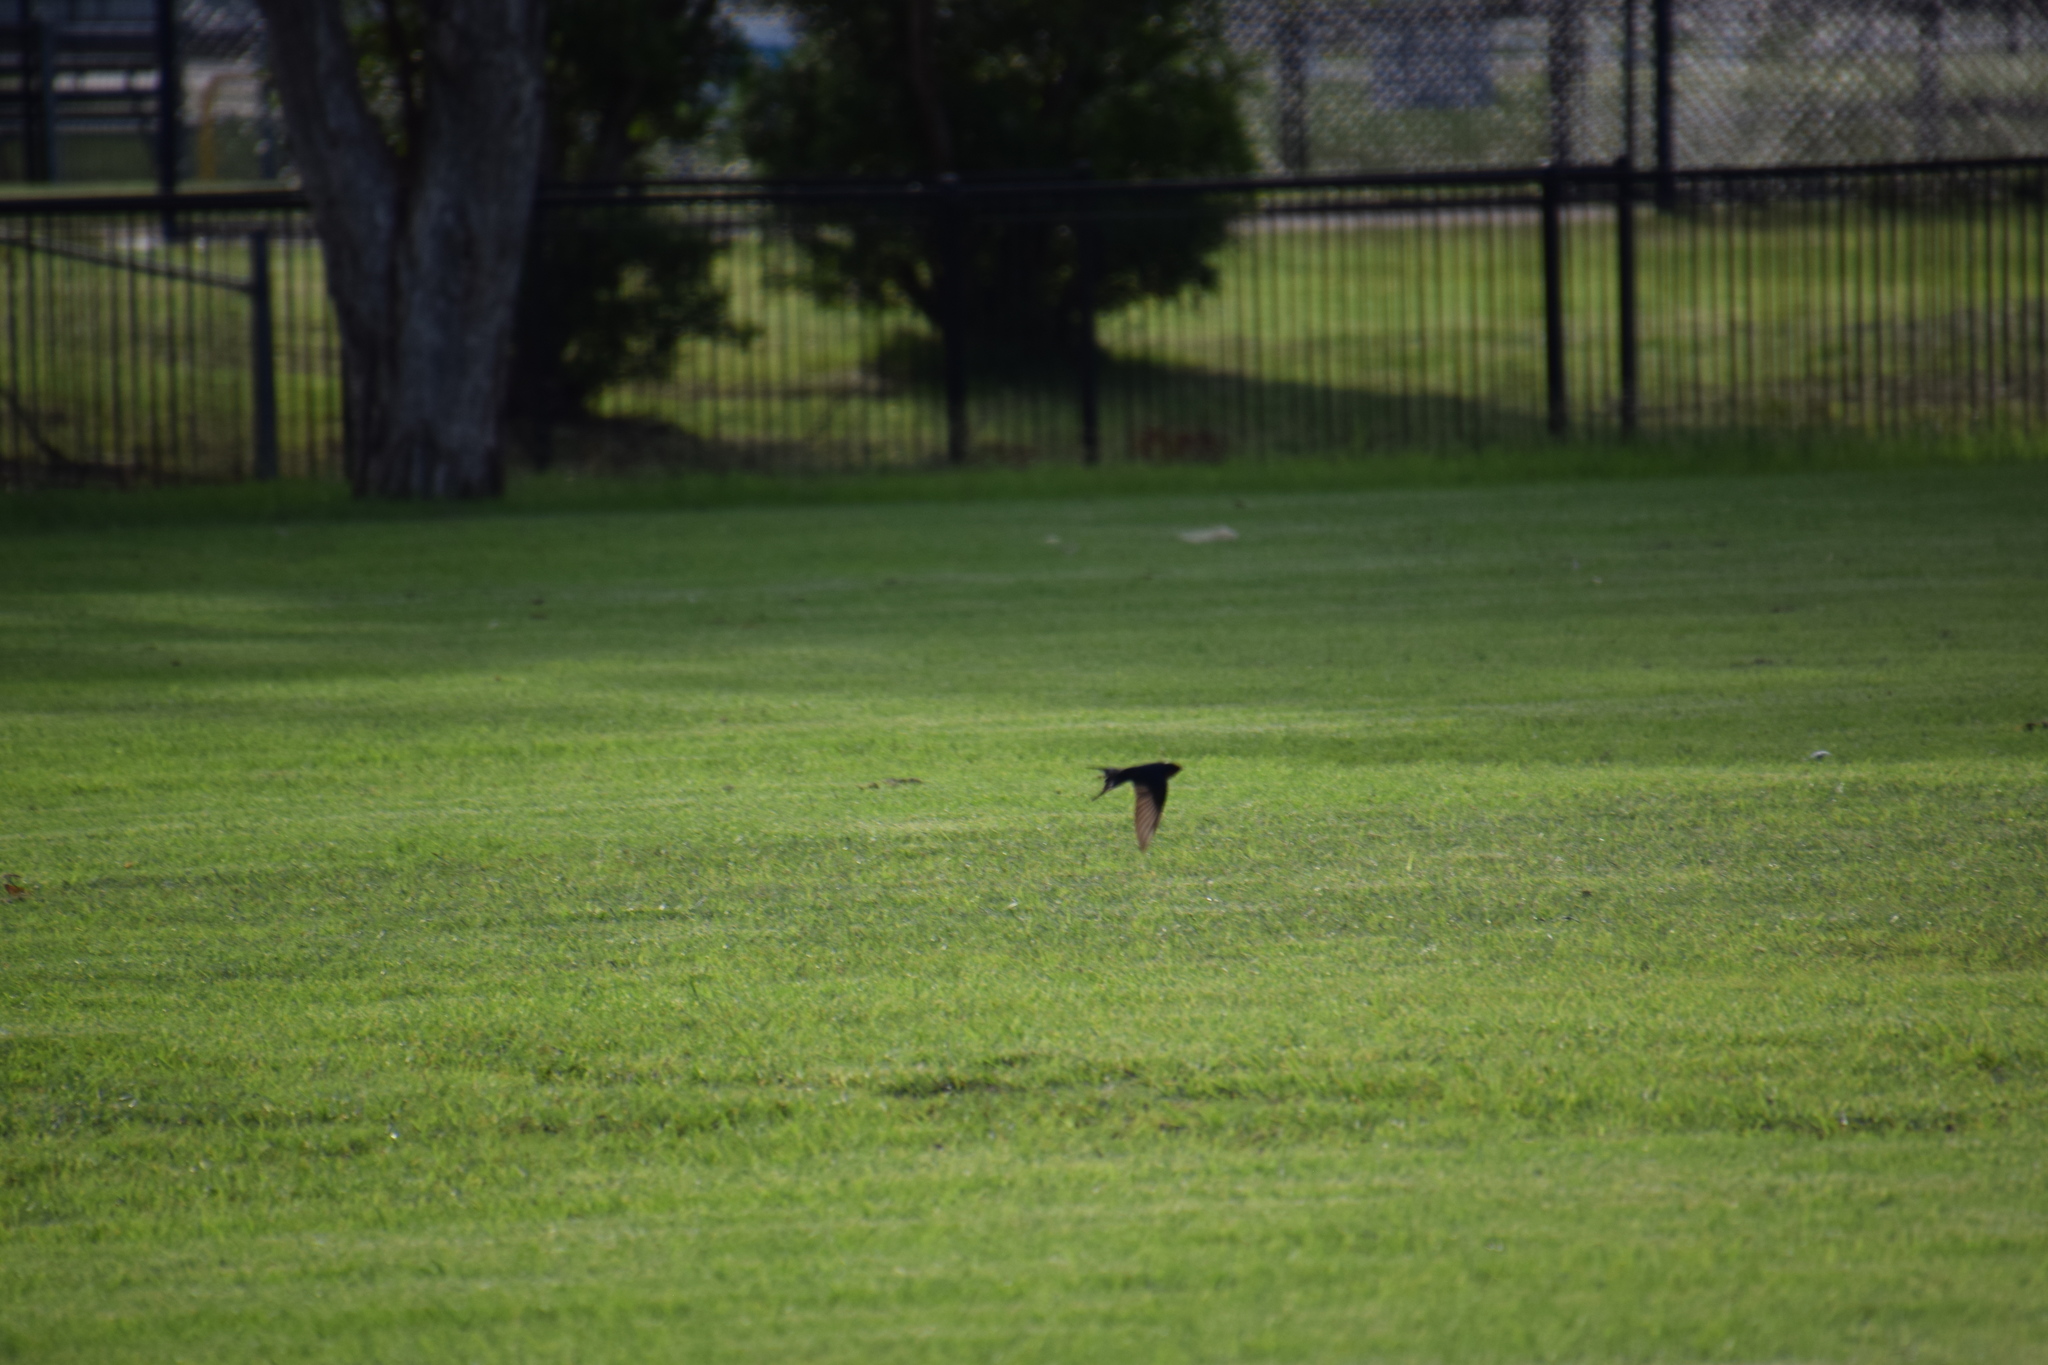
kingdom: Animalia
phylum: Chordata
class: Aves
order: Passeriformes
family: Hirundinidae
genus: Hirundo
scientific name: Hirundo neoxena
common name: Welcome swallow
